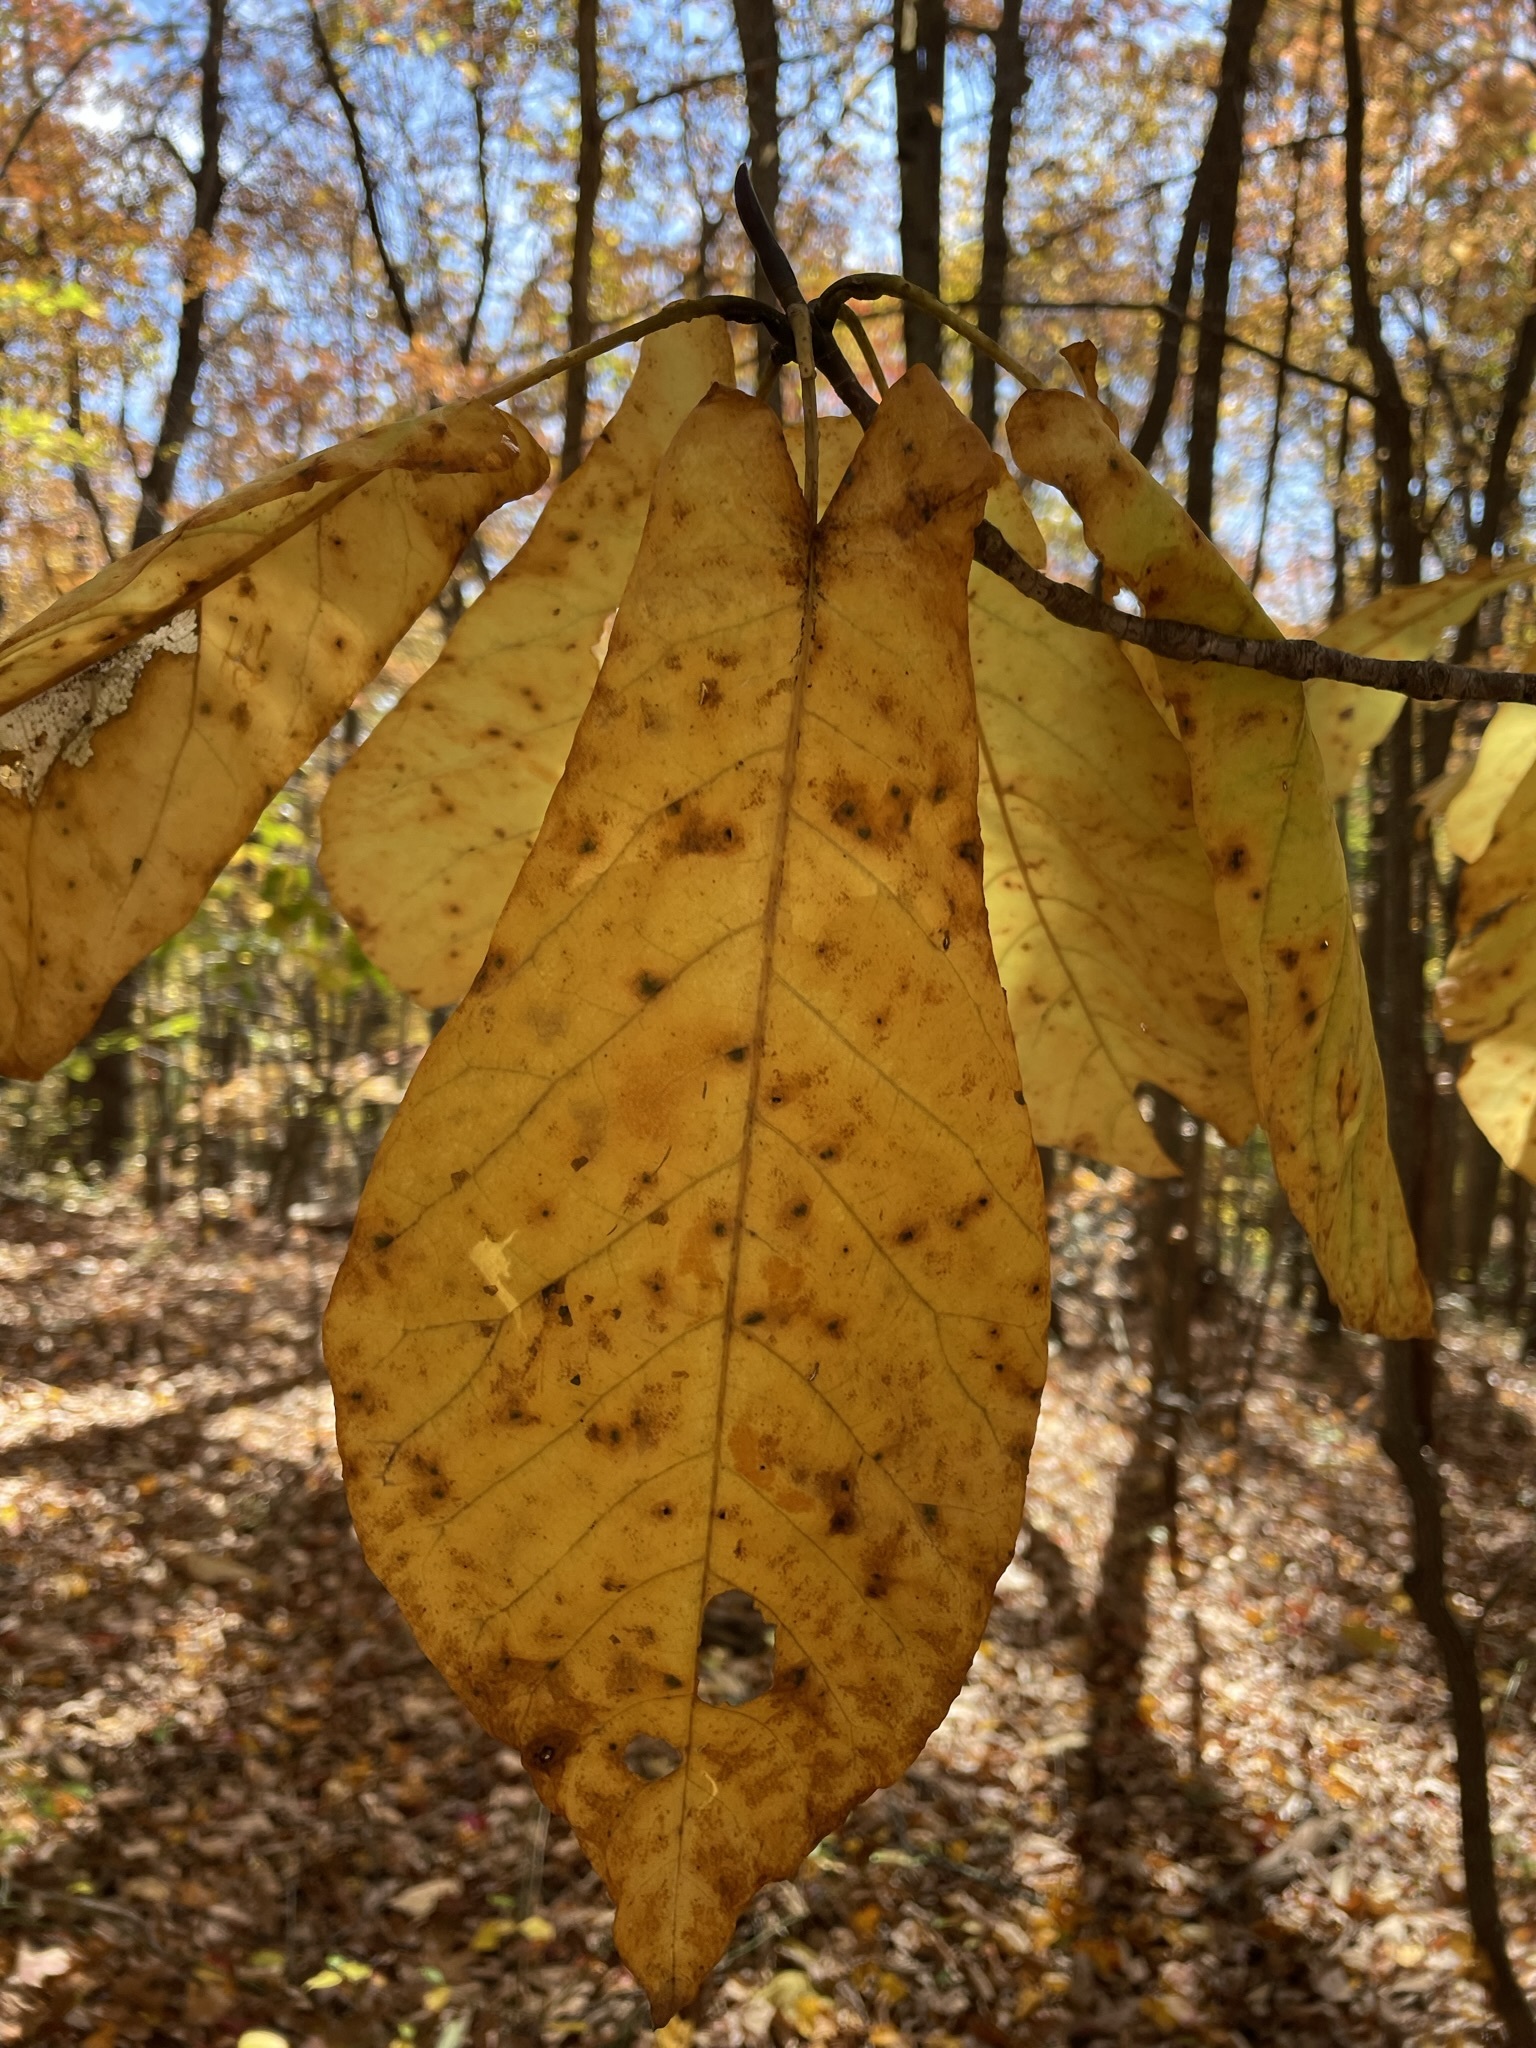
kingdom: Plantae
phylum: Tracheophyta
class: Magnoliopsida
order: Magnoliales
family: Magnoliaceae
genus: Magnolia
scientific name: Magnolia fraseri
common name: Fraser's magnolia
